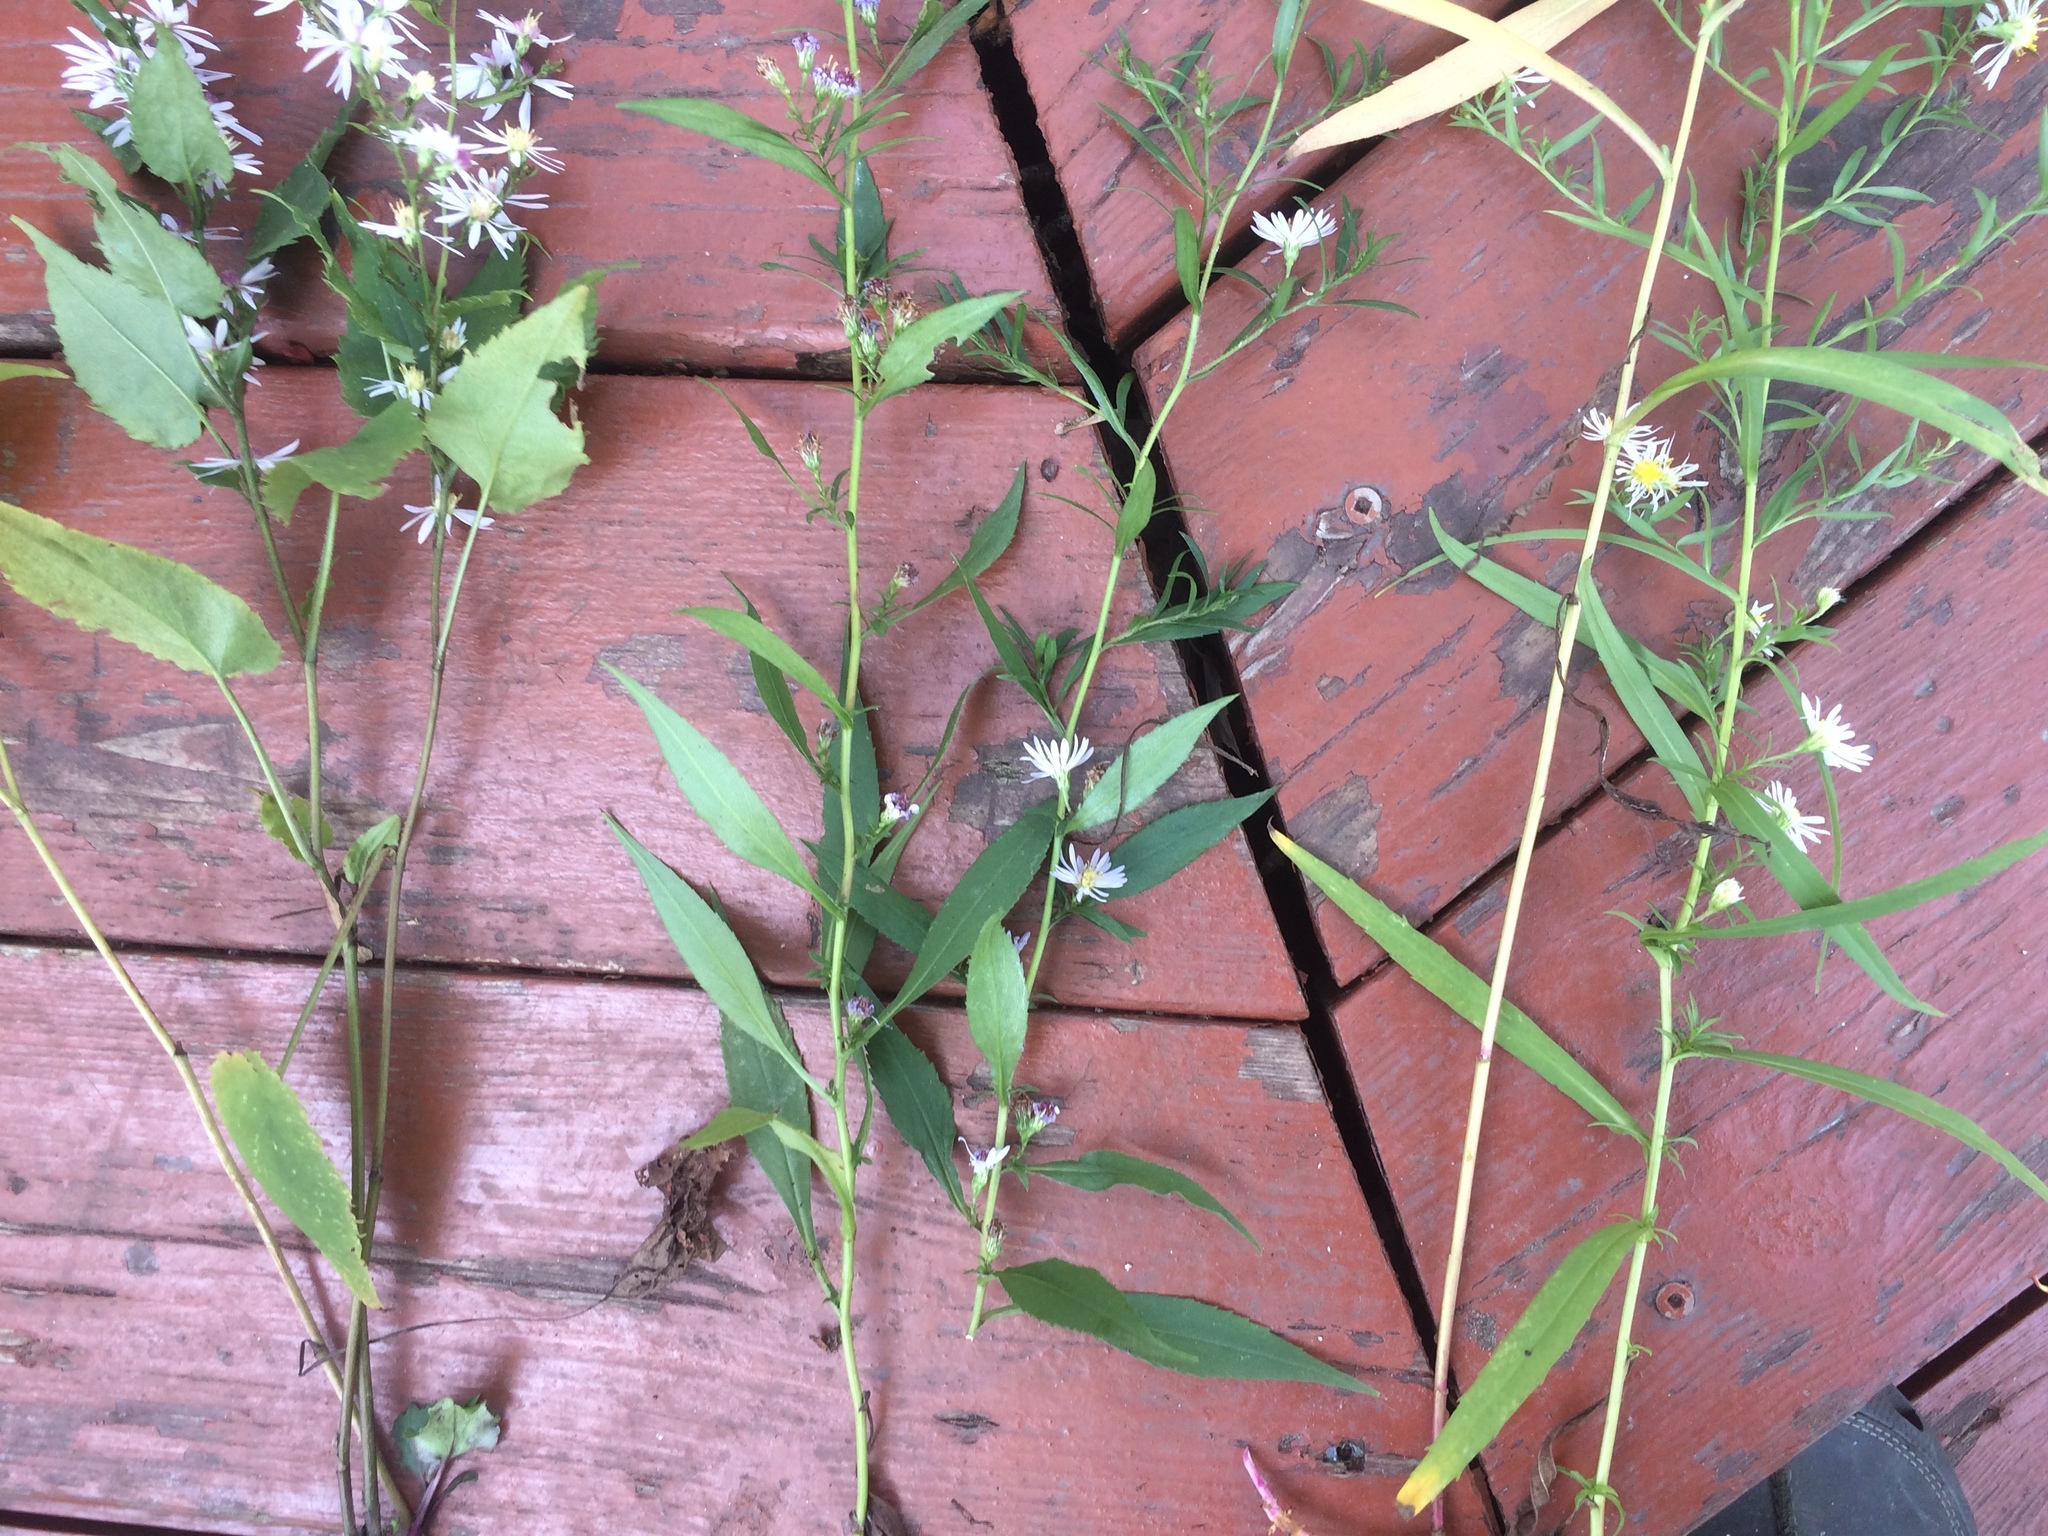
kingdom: Plantae
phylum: Tracheophyta
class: Magnoliopsida
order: Asterales
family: Asteraceae
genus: Symphyotrichum
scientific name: Symphyotrichum lanceolatum
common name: Panicled aster
